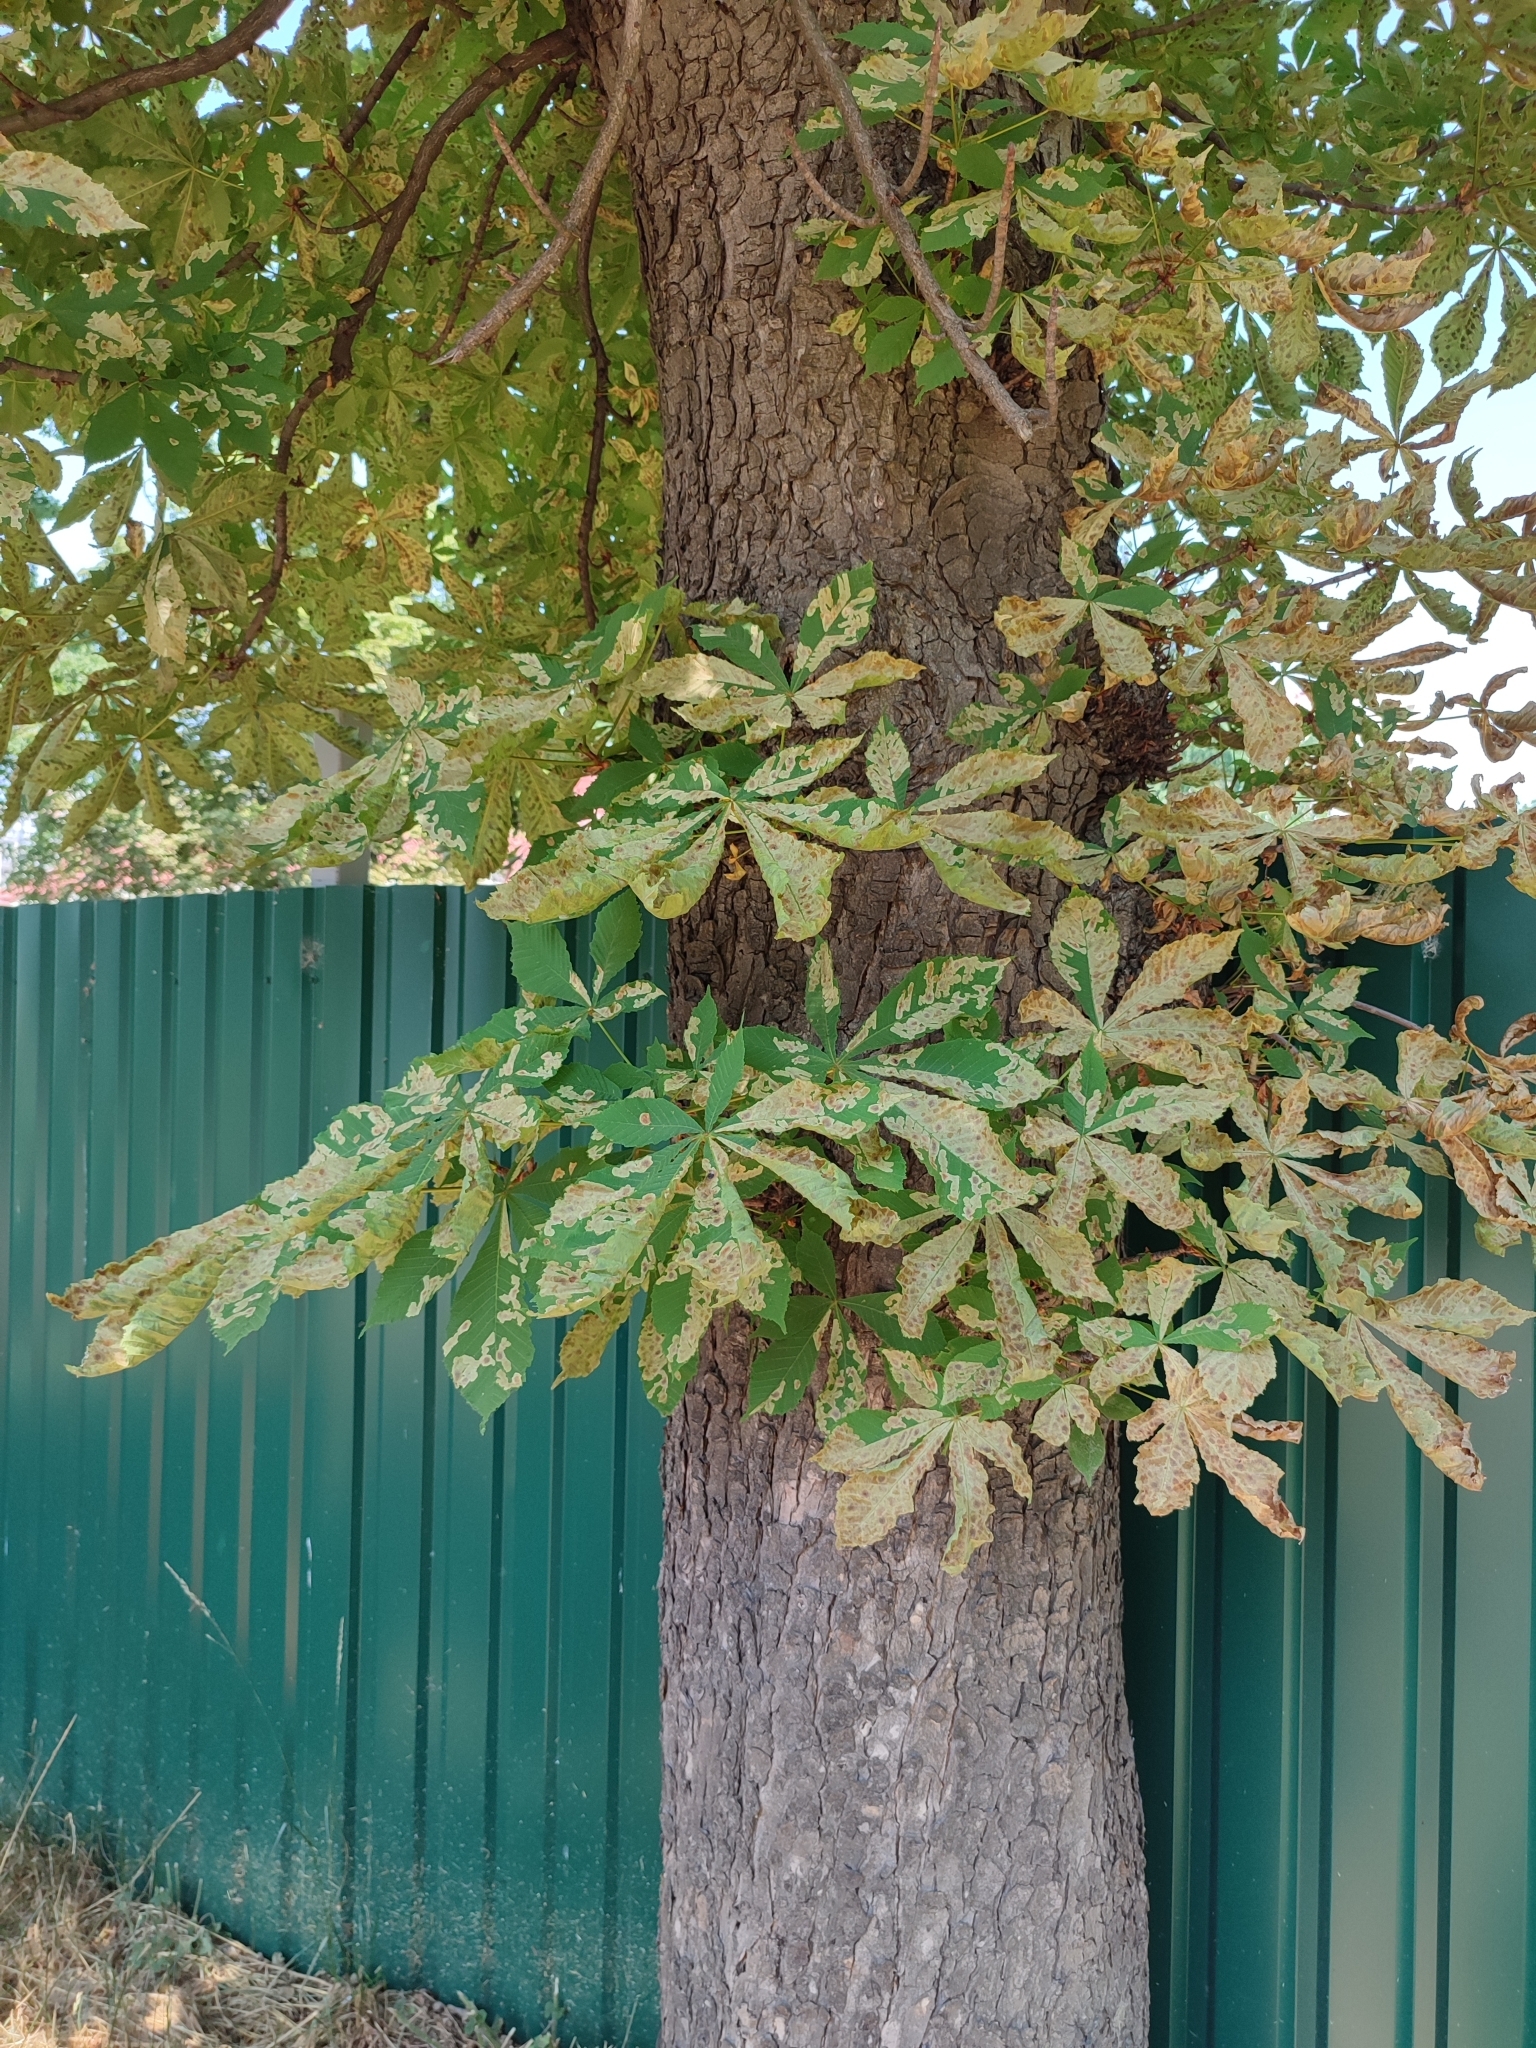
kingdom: Animalia
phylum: Arthropoda
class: Insecta
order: Lepidoptera
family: Gracillariidae
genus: Cameraria
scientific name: Cameraria ohridella
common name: Horse-chestnut leaf-miner
